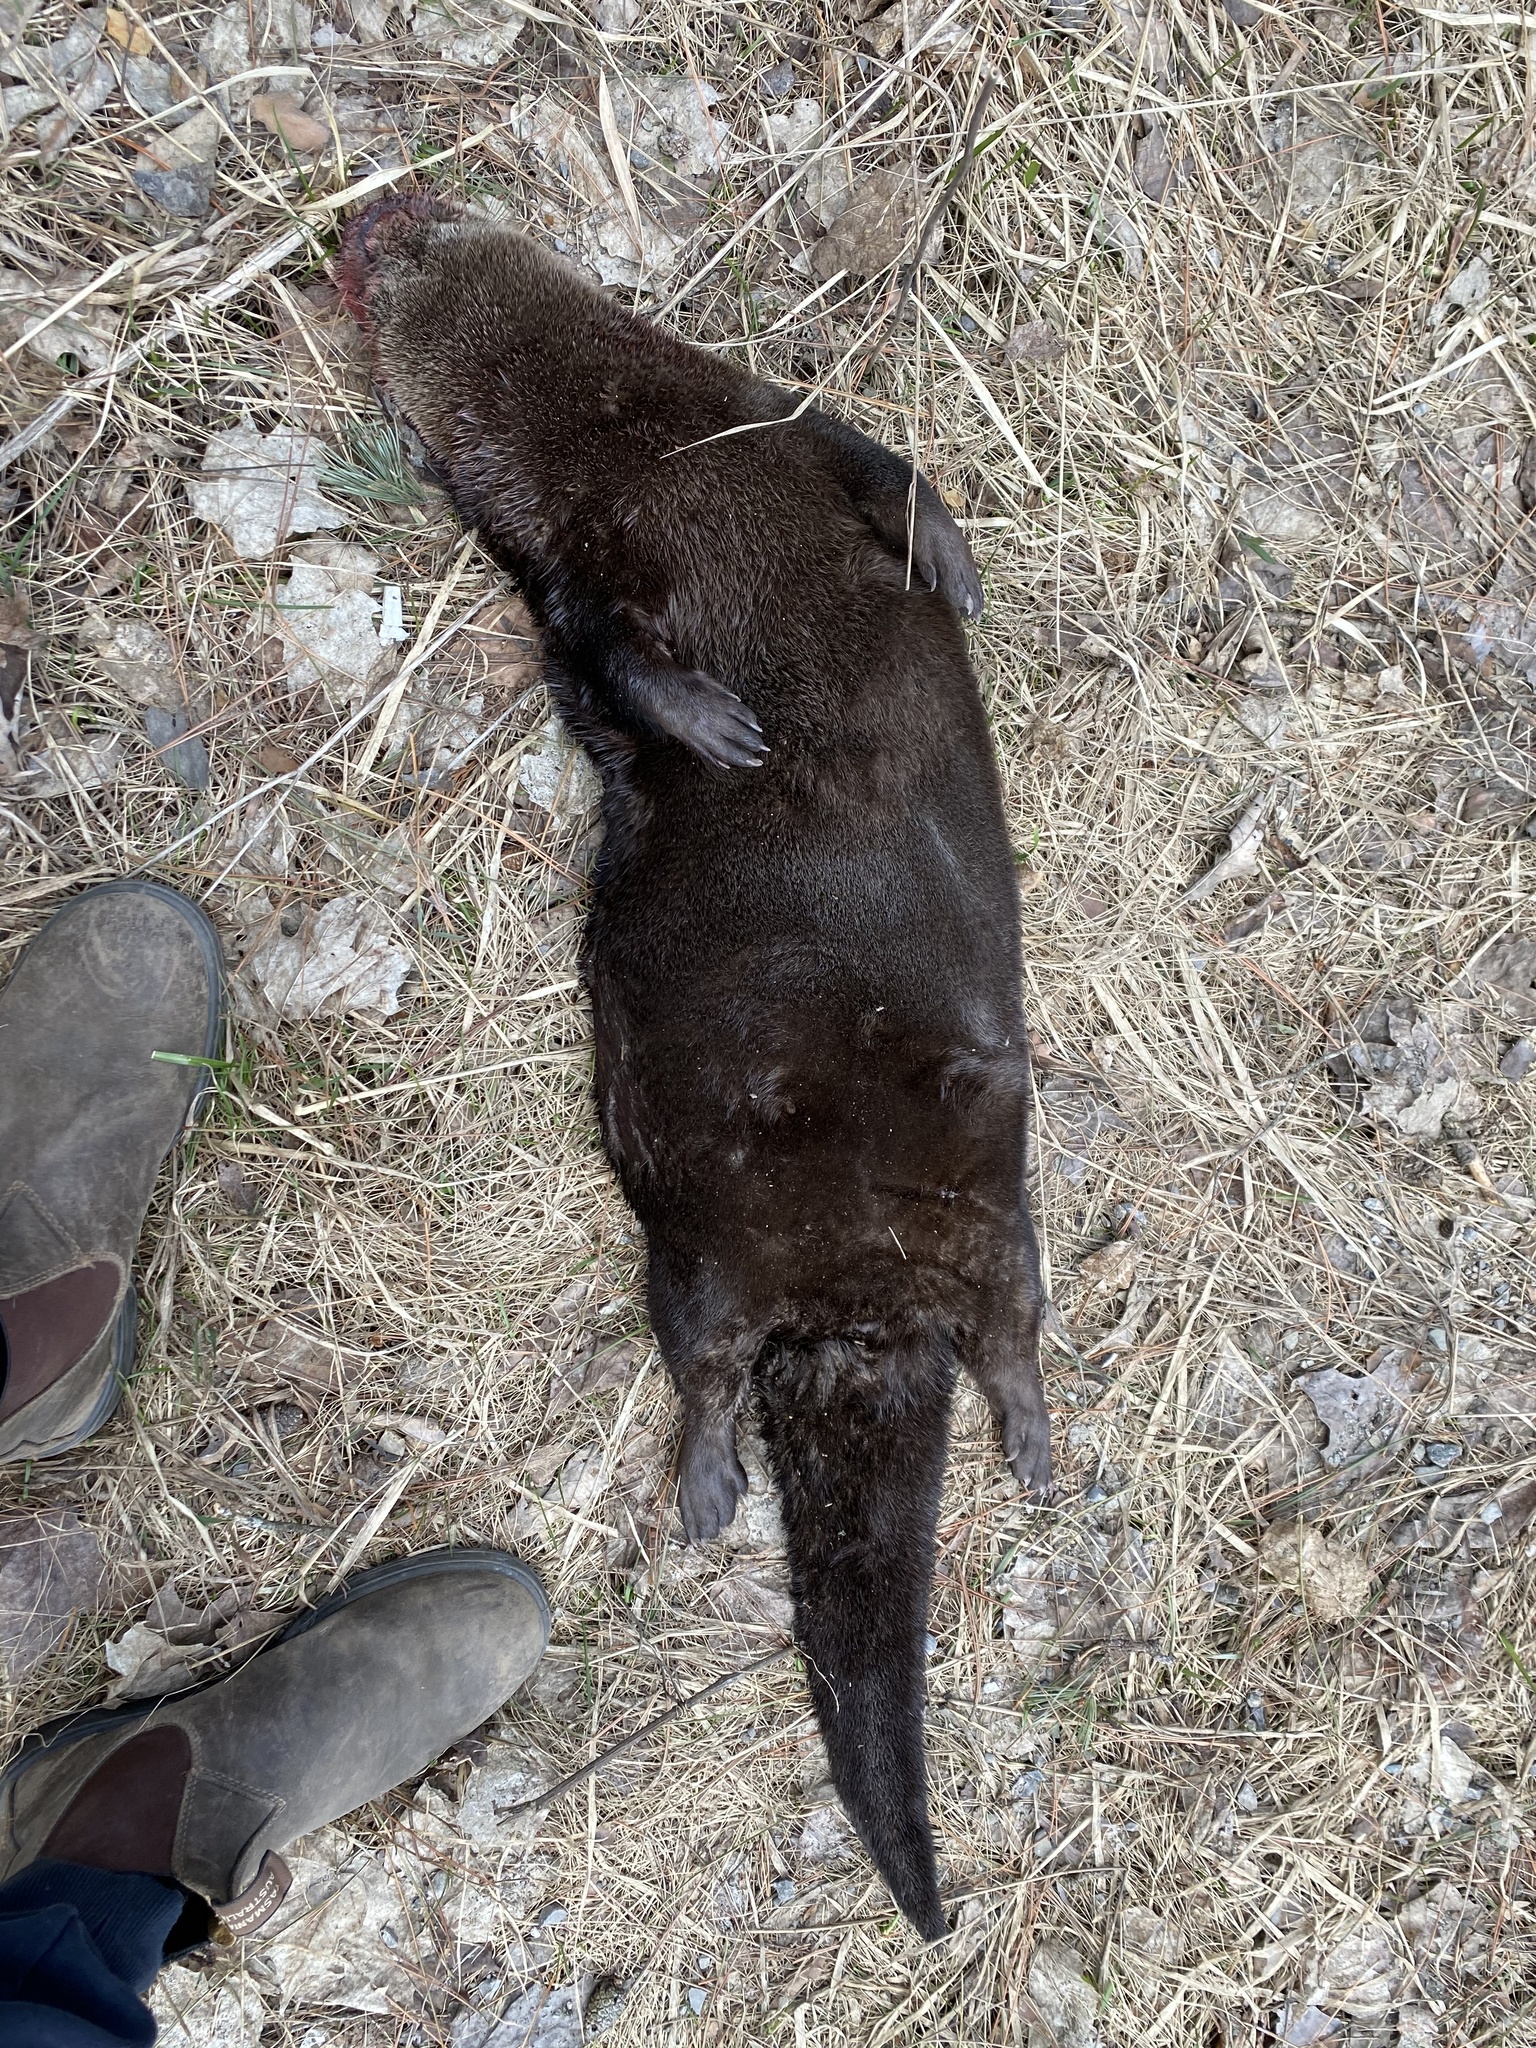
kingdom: Animalia
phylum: Chordata
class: Mammalia
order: Carnivora
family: Mustelidae
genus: Lontra
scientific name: Lontra canadensis
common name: North american river otter
